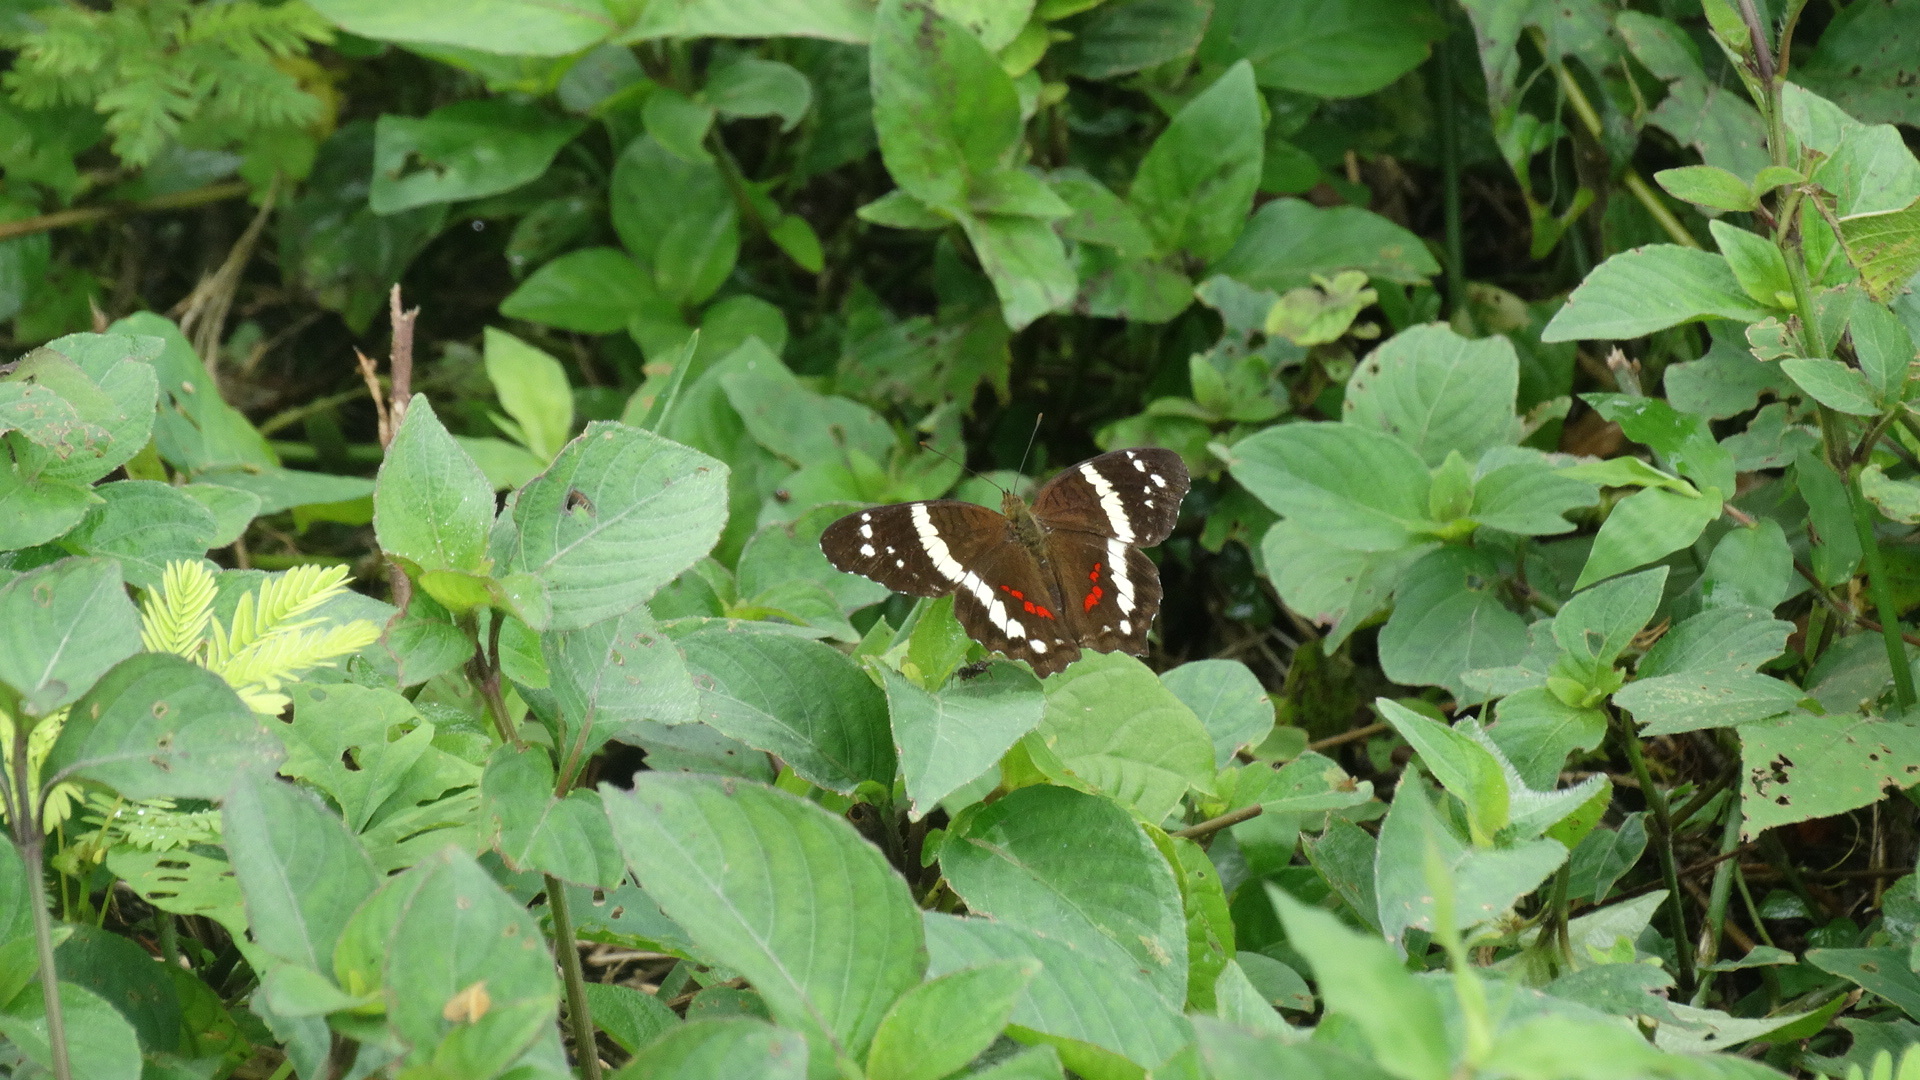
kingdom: Animalia
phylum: Arthropoda
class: Insecta
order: Lepidoptera
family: Nymphalidae
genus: Anartia
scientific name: Anartia fatima
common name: Banded peacock
